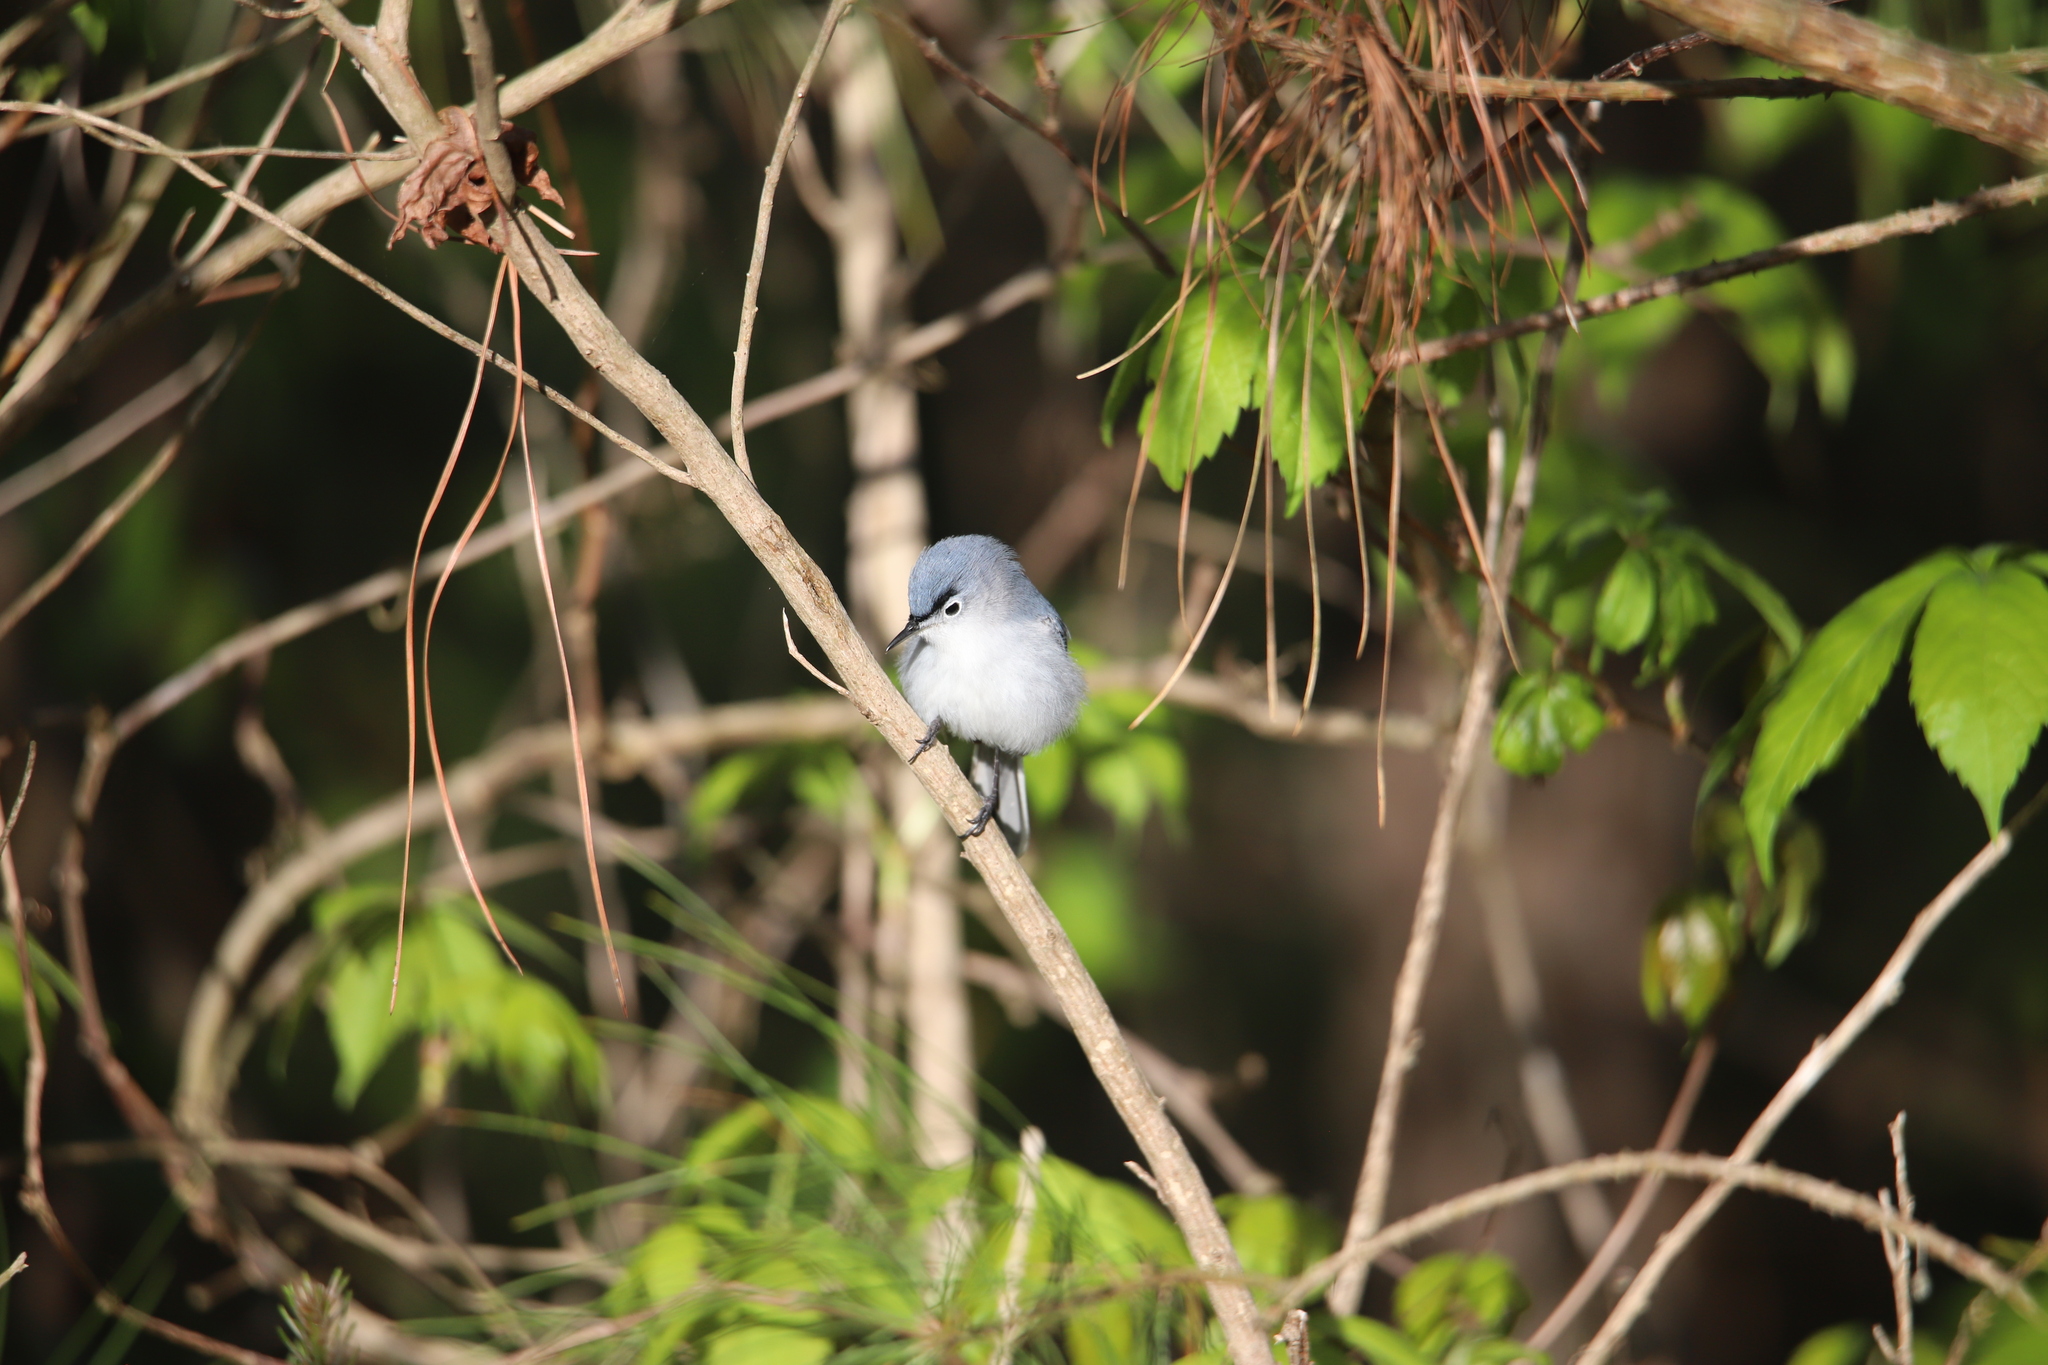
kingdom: Animalia
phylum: Chordata
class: Aves
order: Passeriformes
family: Polioptilidae
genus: Polioptila
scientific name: Polioptila caerulea
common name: Blue-gray gnatcatcher
